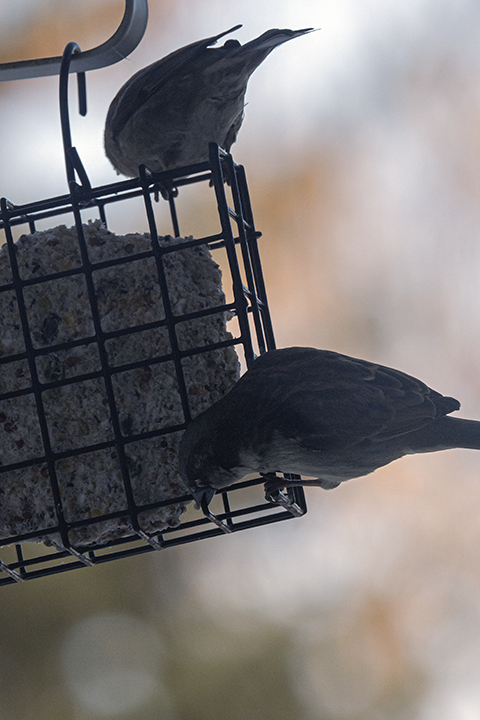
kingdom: Animalia
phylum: Chordata
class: Aves
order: Passeriformes
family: Passeridae
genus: Passer
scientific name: Passer domesticus
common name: House sparrow
